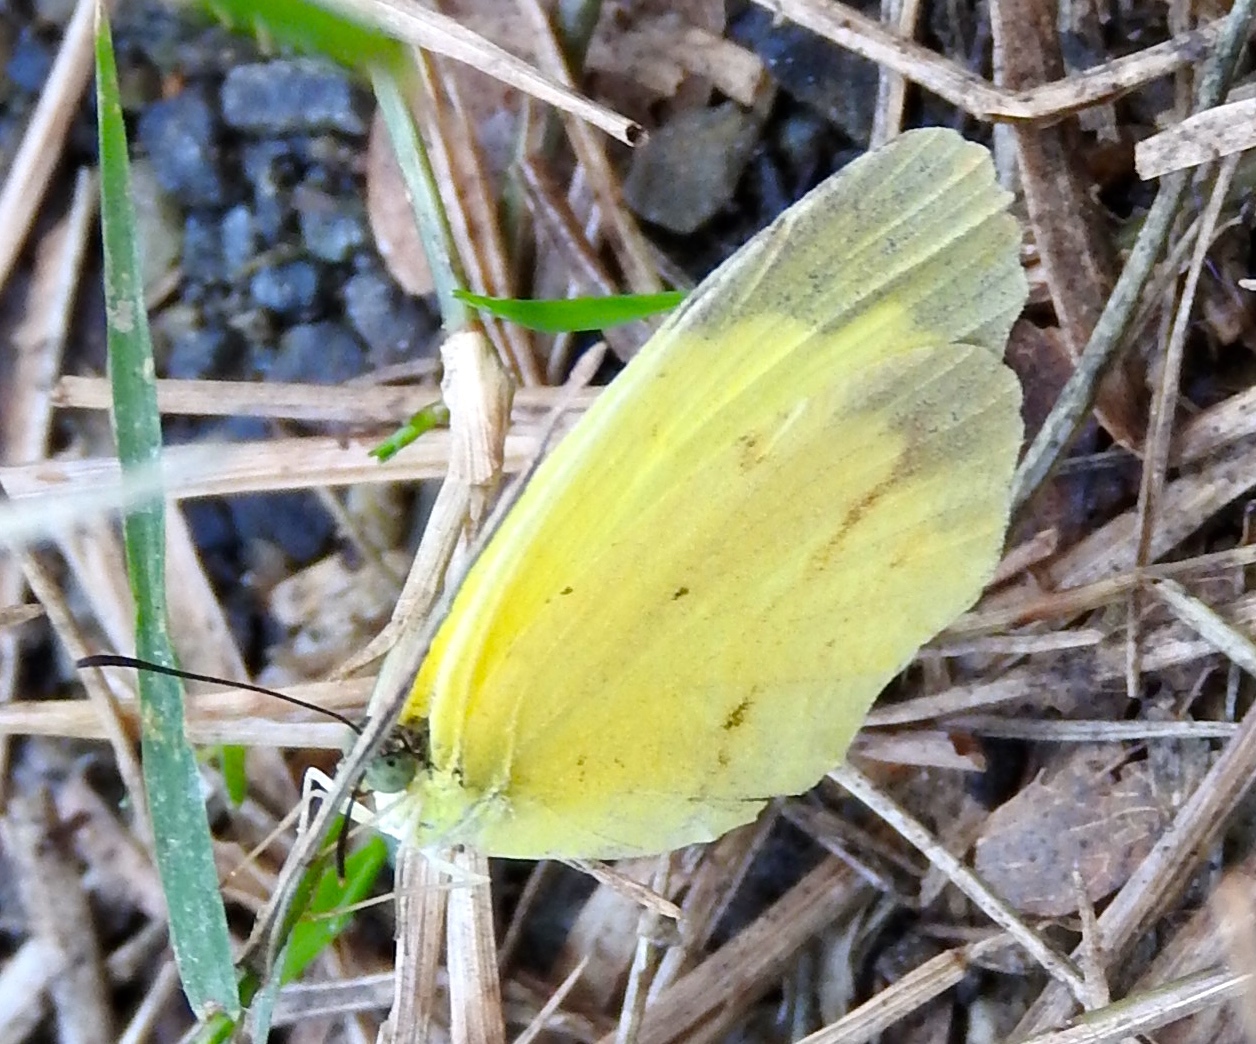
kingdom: Animalia
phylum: Arthropoda
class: Insecta
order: Lepidoptera
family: Pieridae
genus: Abaeis
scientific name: Abaeis boisduvaliana
